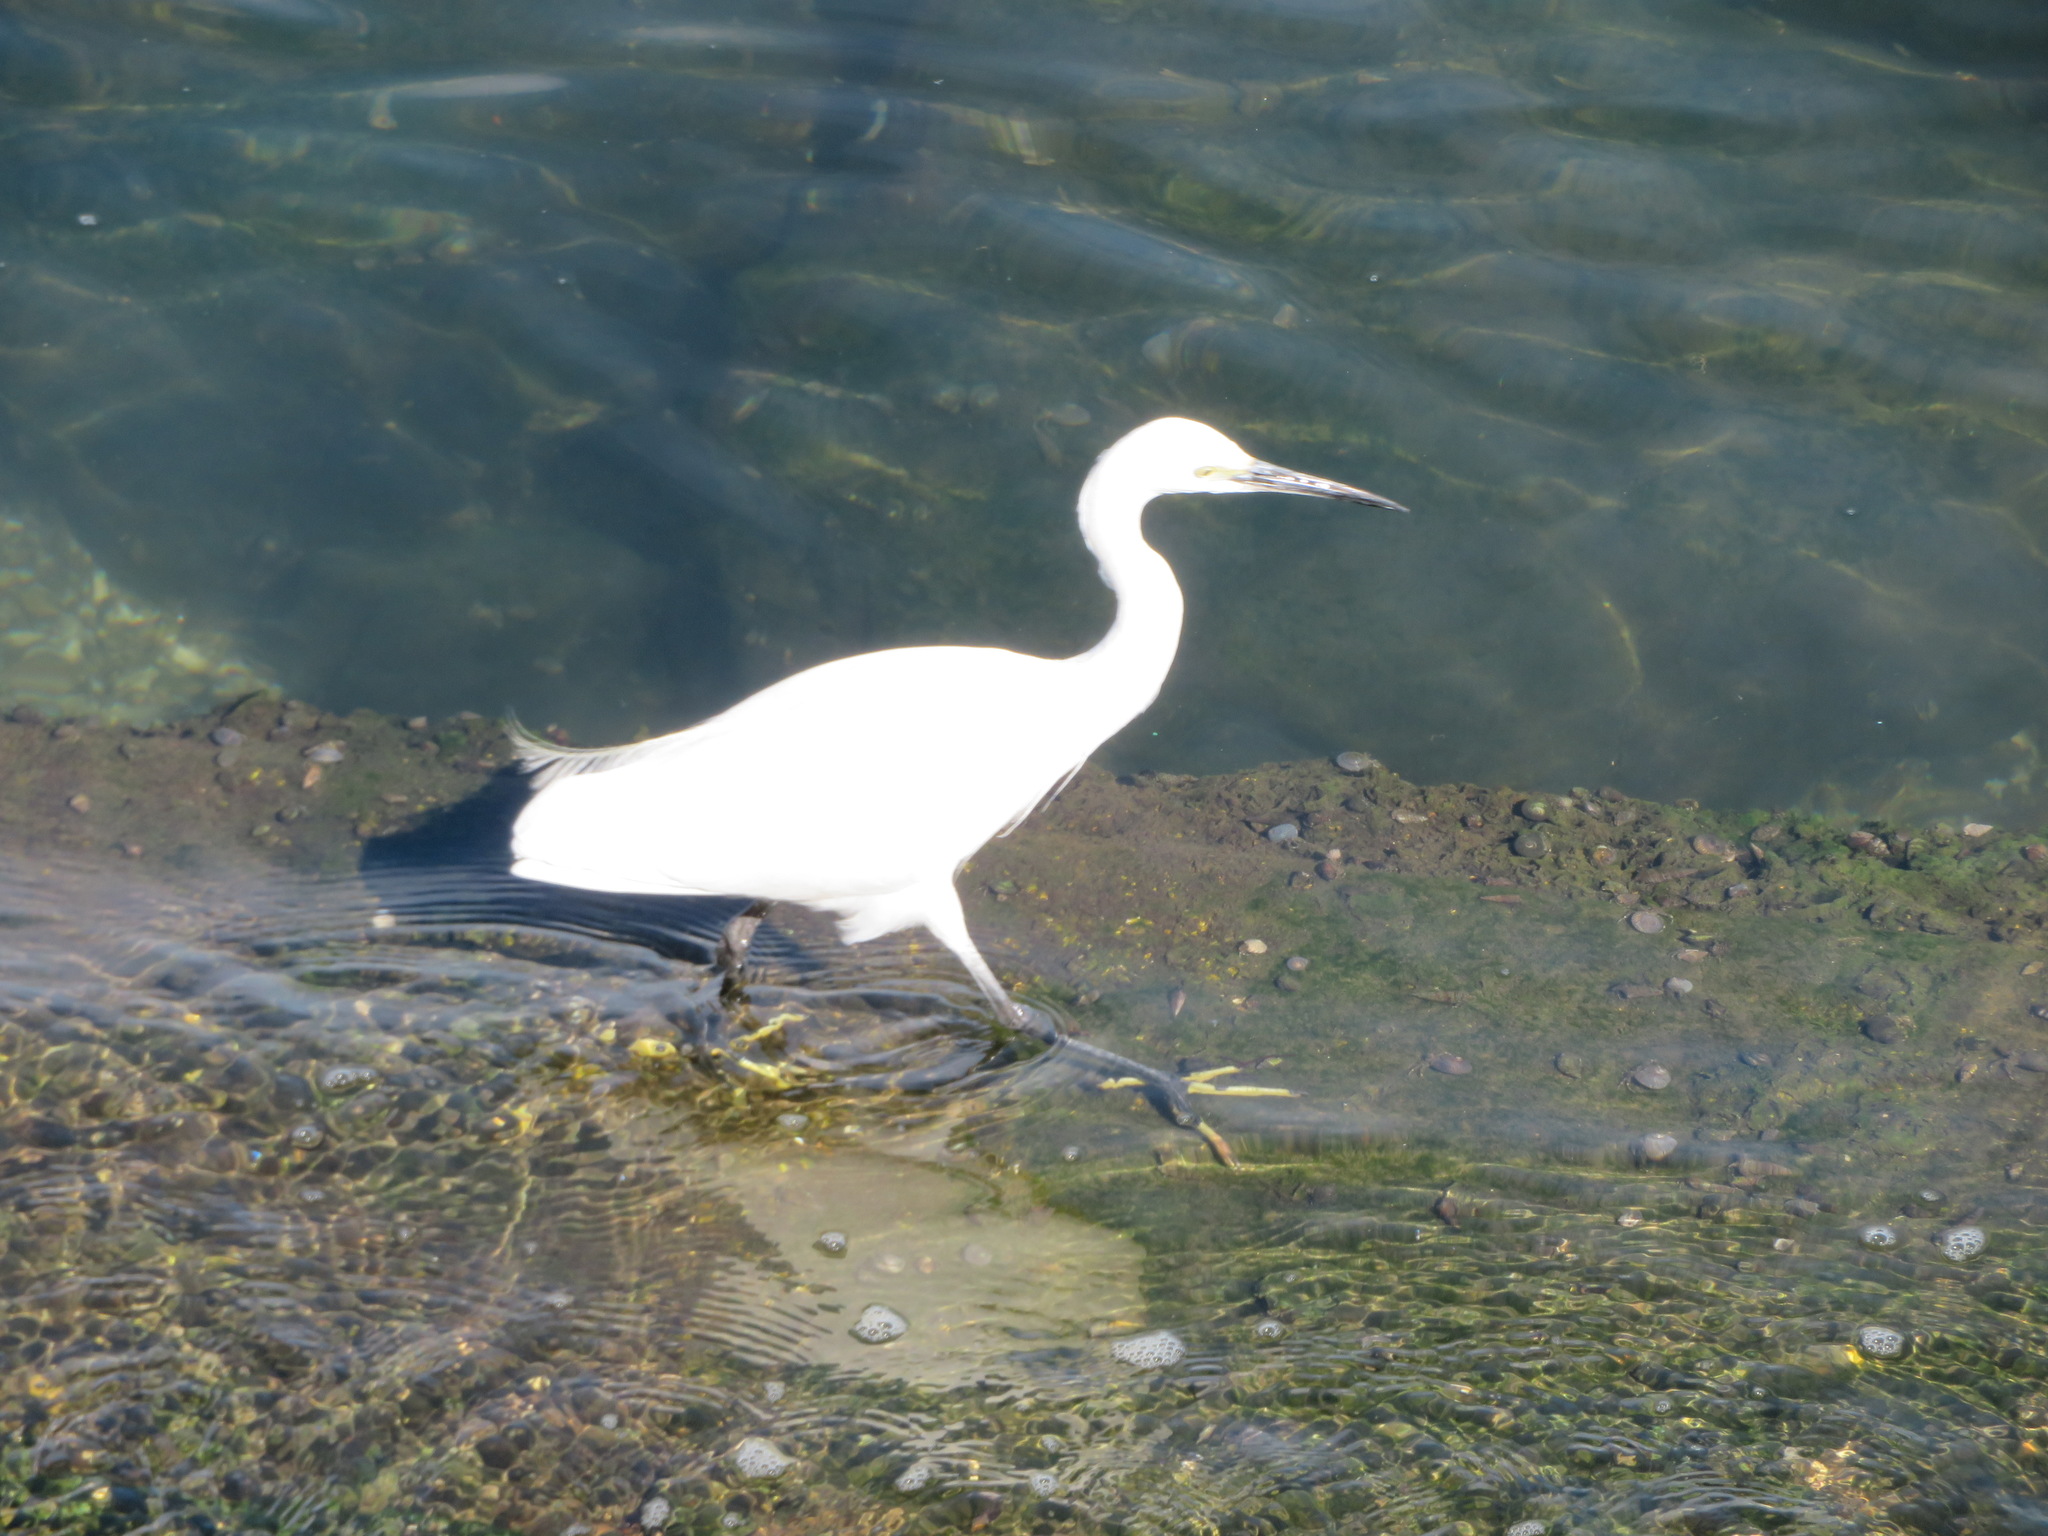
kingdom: Animalia
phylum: Chordata
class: Aves
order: Pelecaniformes
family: Ardeidae
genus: Egretta
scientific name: Egretta garzetta
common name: Little egret
